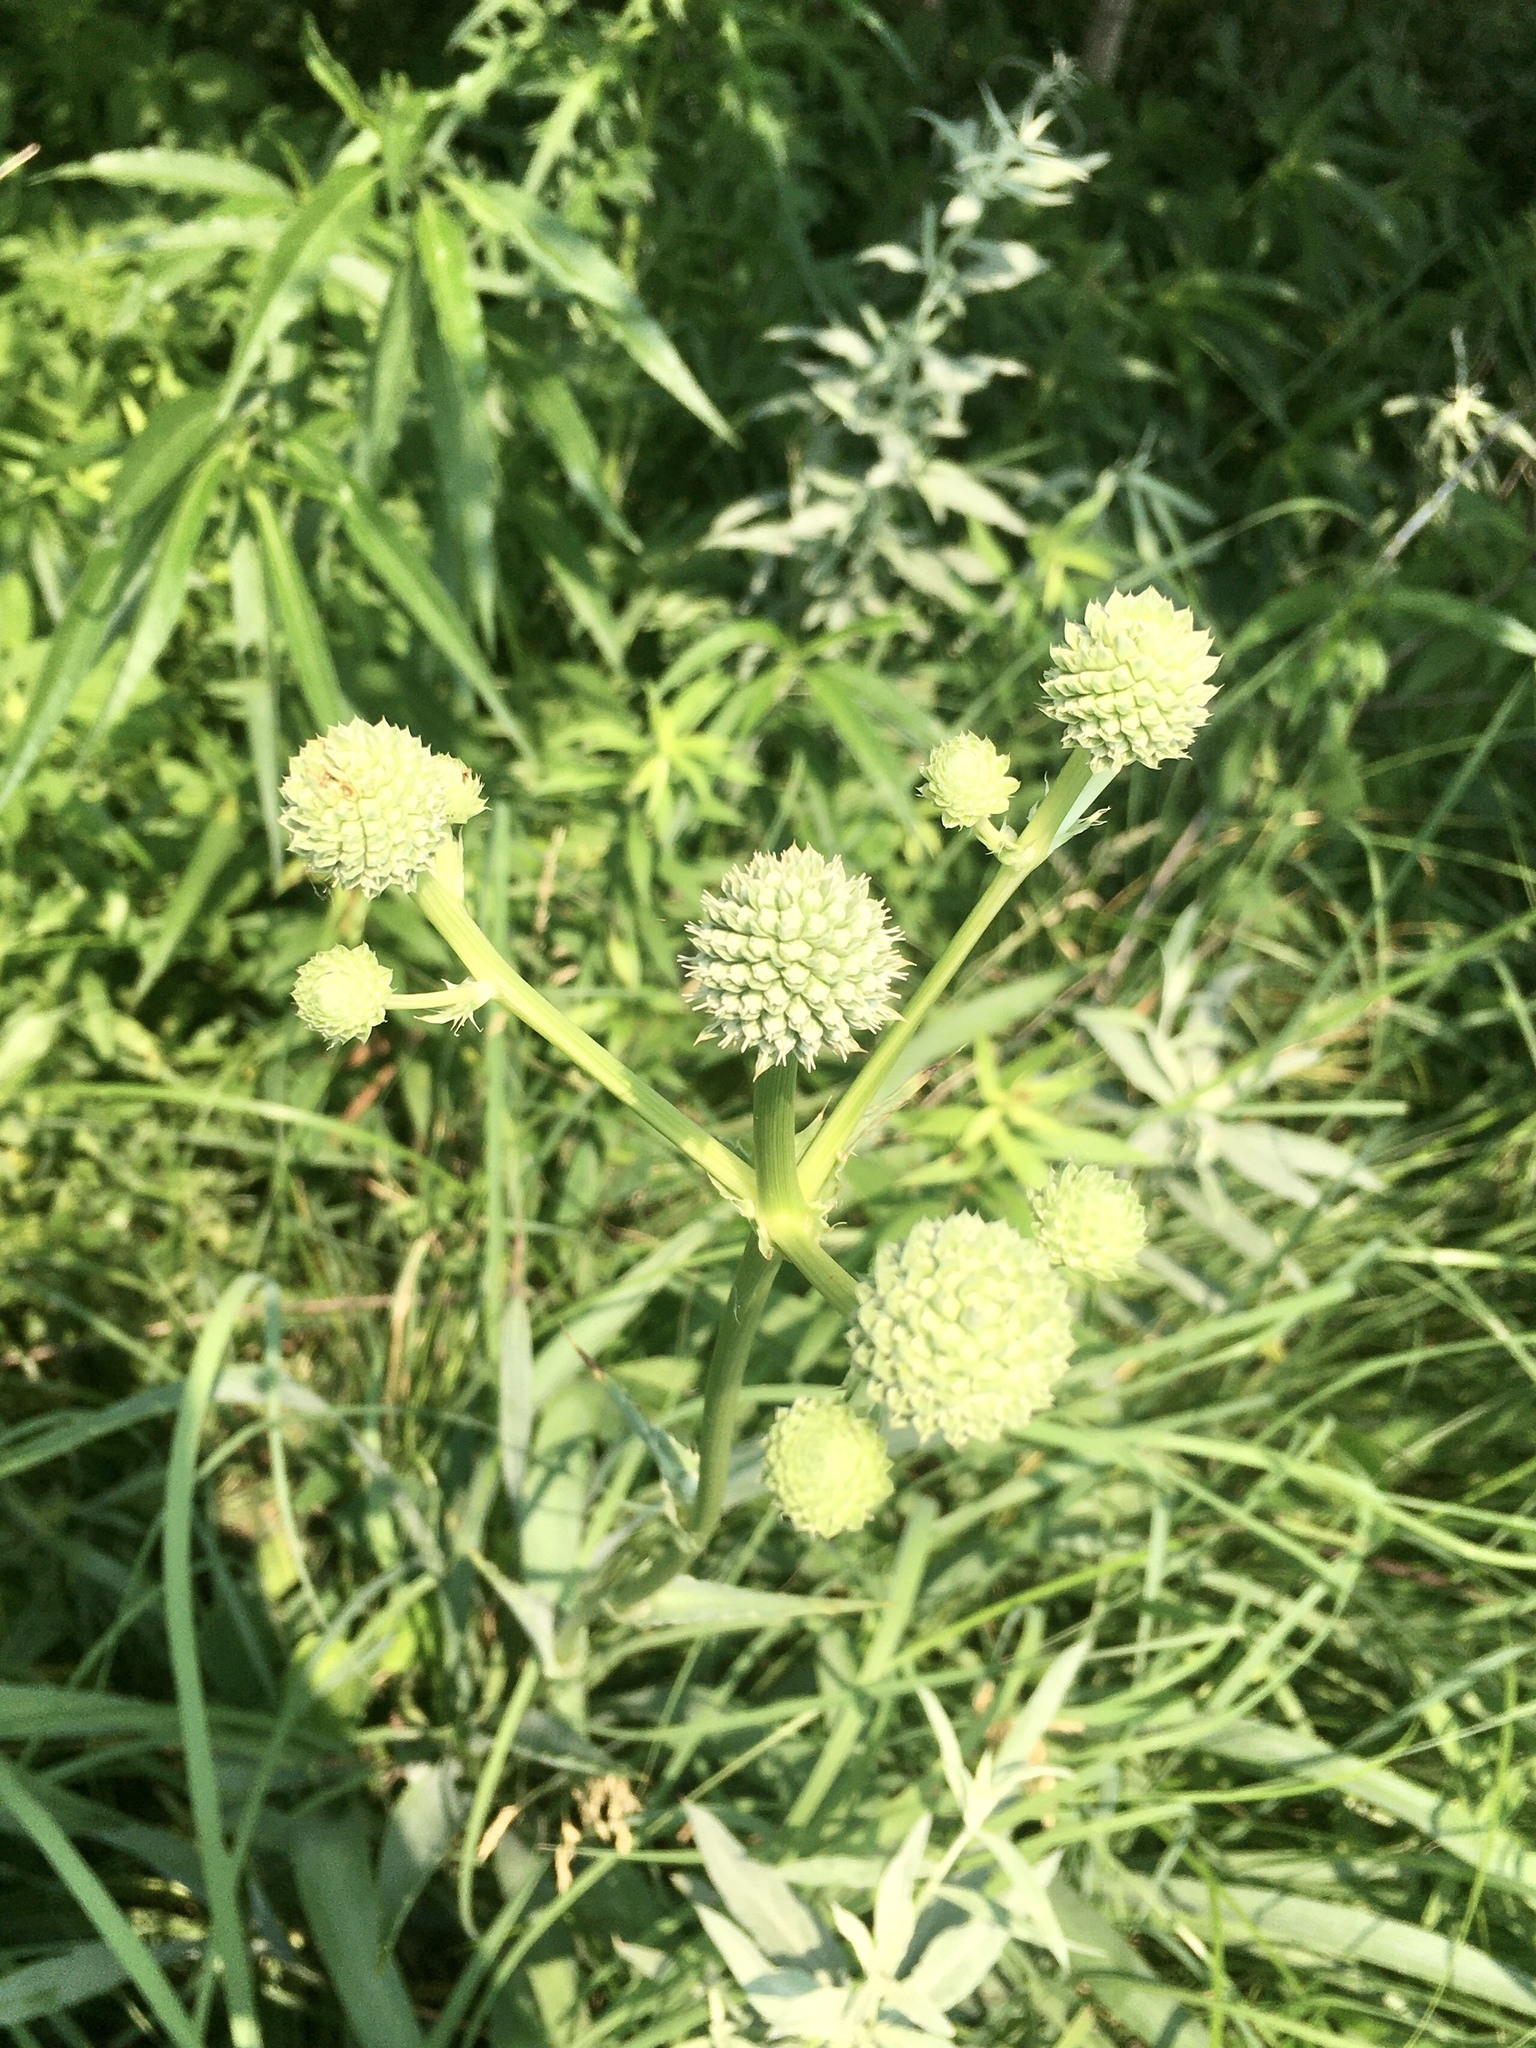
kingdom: Plantae
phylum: Tracheophyta
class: Magnoliopsida
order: Apiales
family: Apiaceae
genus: Eryngium
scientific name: Eryngium yuccifolium
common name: Button eryngo
